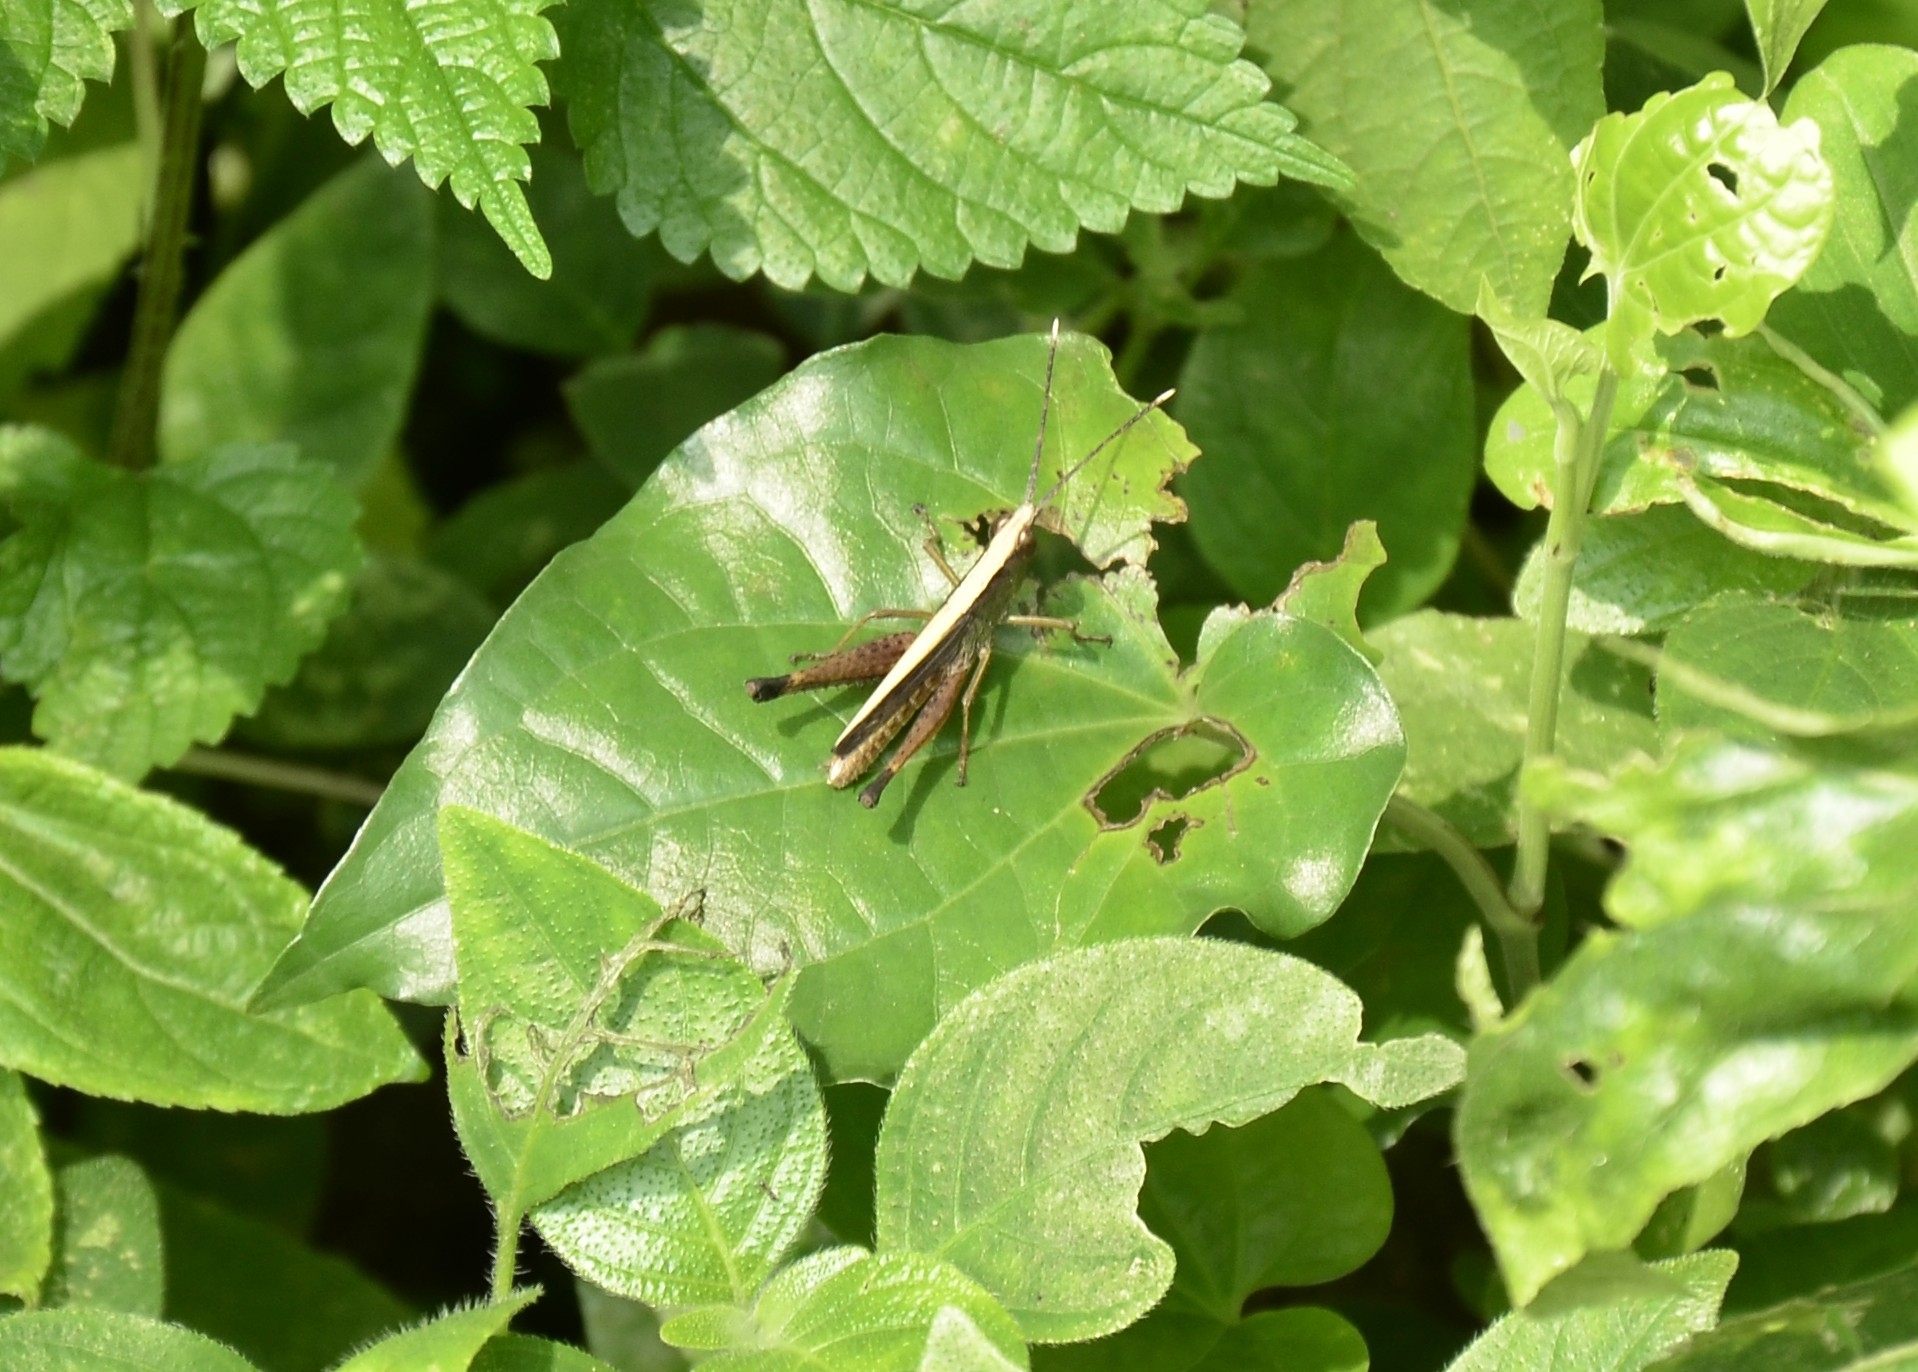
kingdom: Animalia
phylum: Arthropoda
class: Insecta
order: Orthoptera
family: Acrididae
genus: Phlaeoba
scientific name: Phlaeoba antennata
